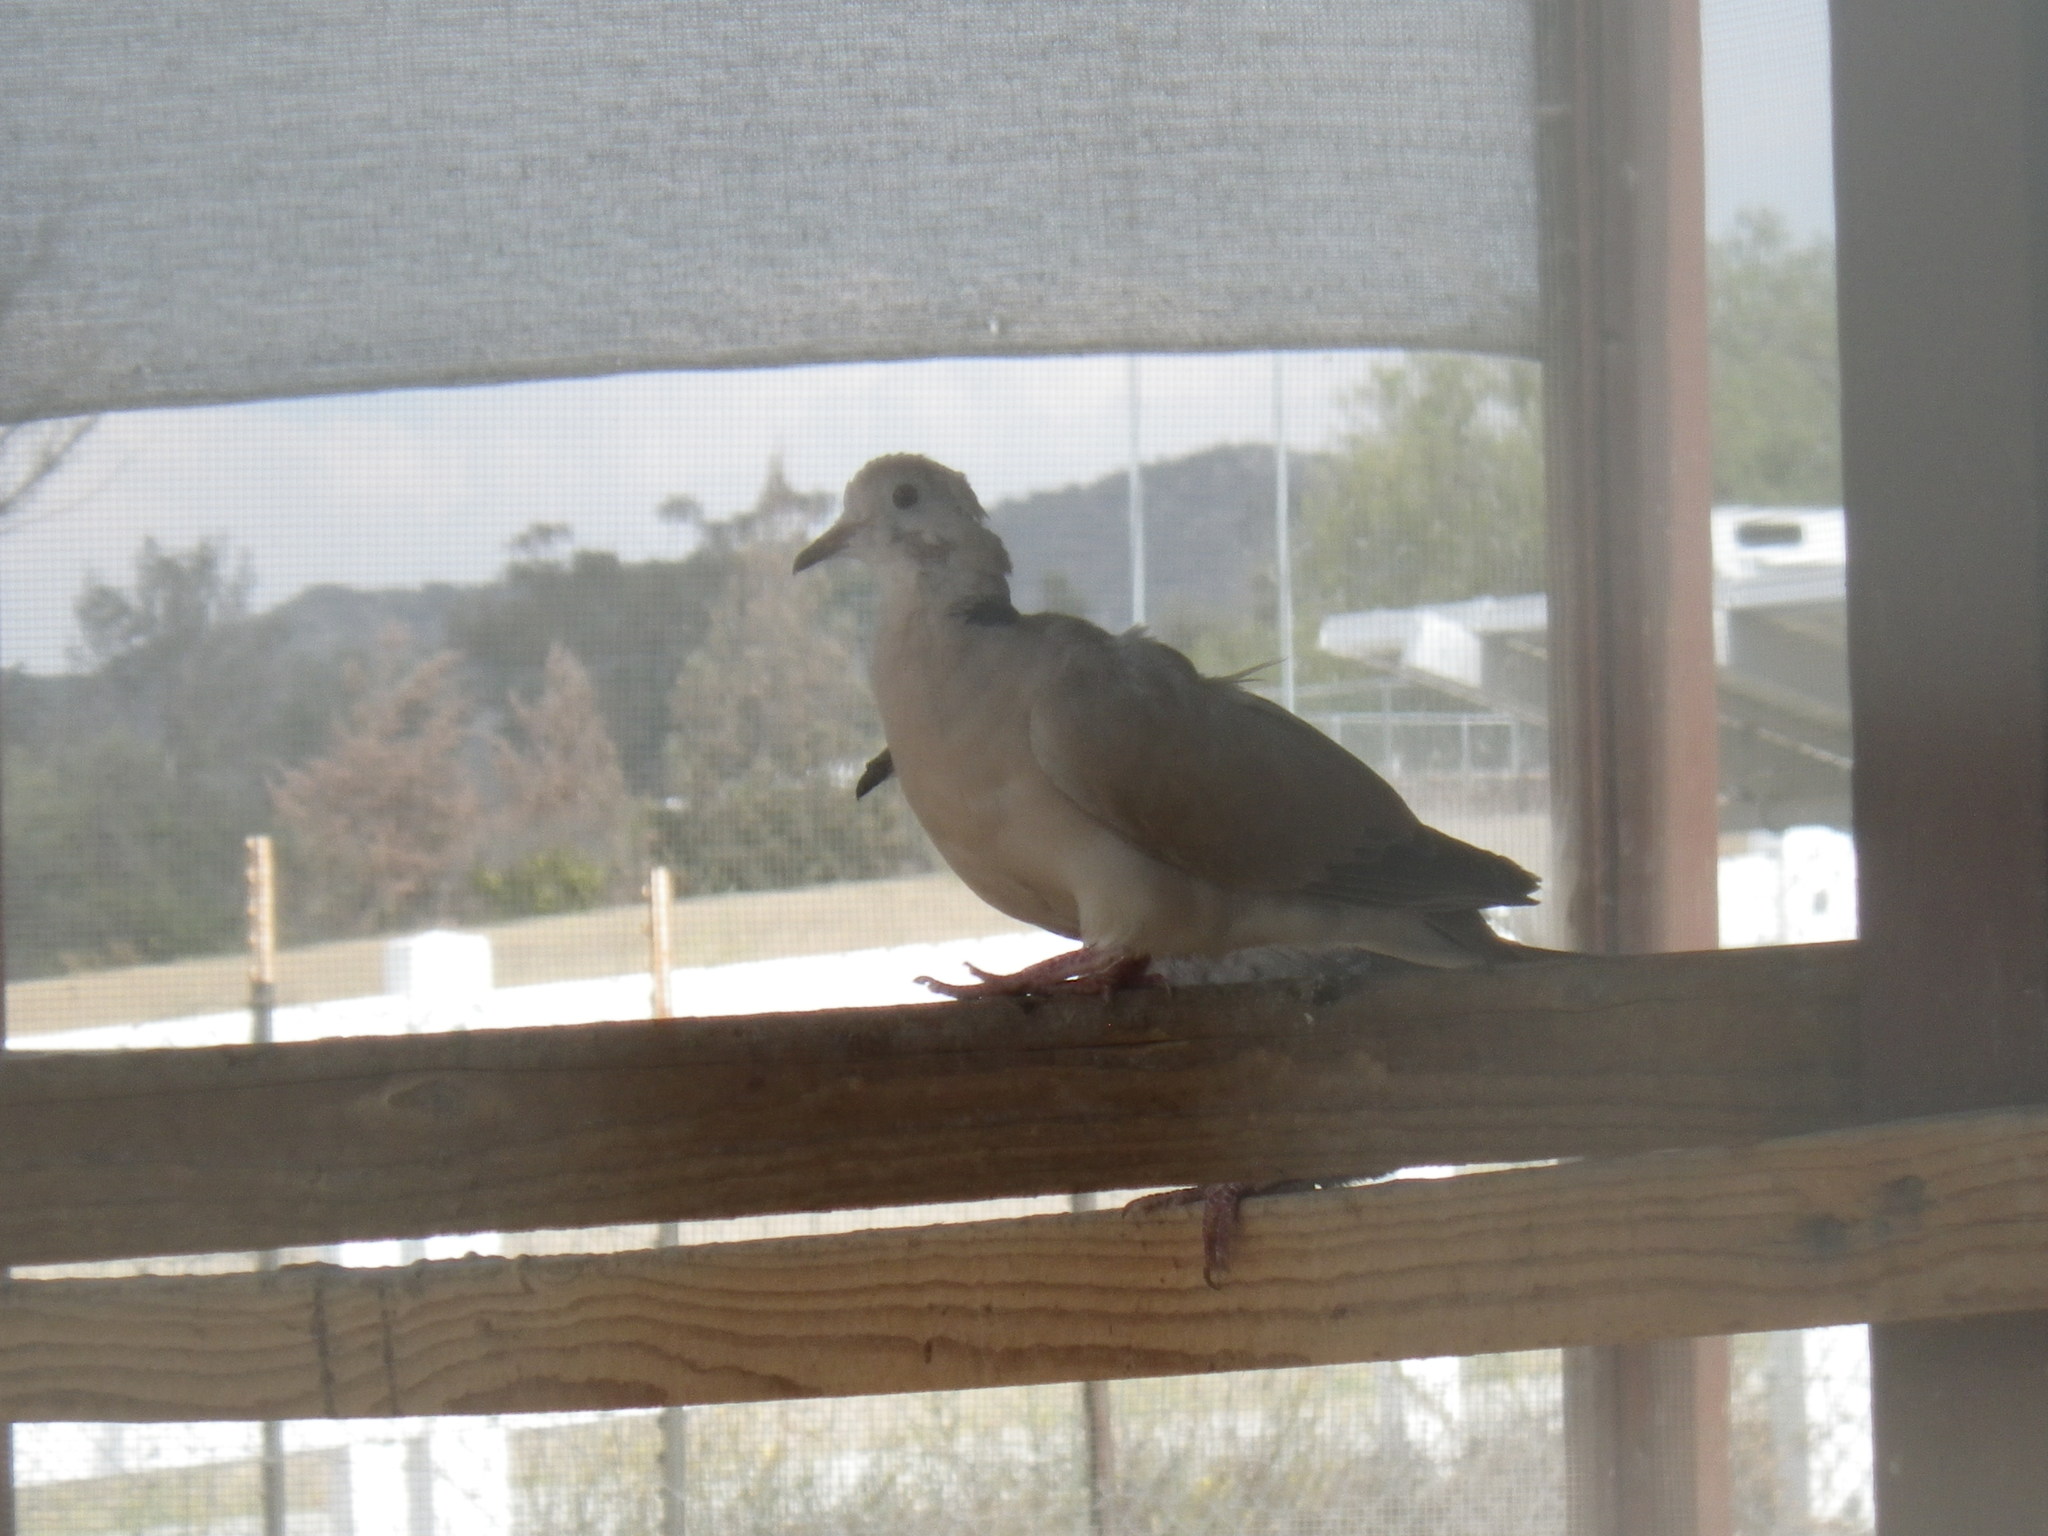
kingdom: Animalia
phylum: Chordata
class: Aves
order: Columbiformes
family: Columbidae
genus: Streptopelia
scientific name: Streptopelia decaocto
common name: Eurasian collared dove
